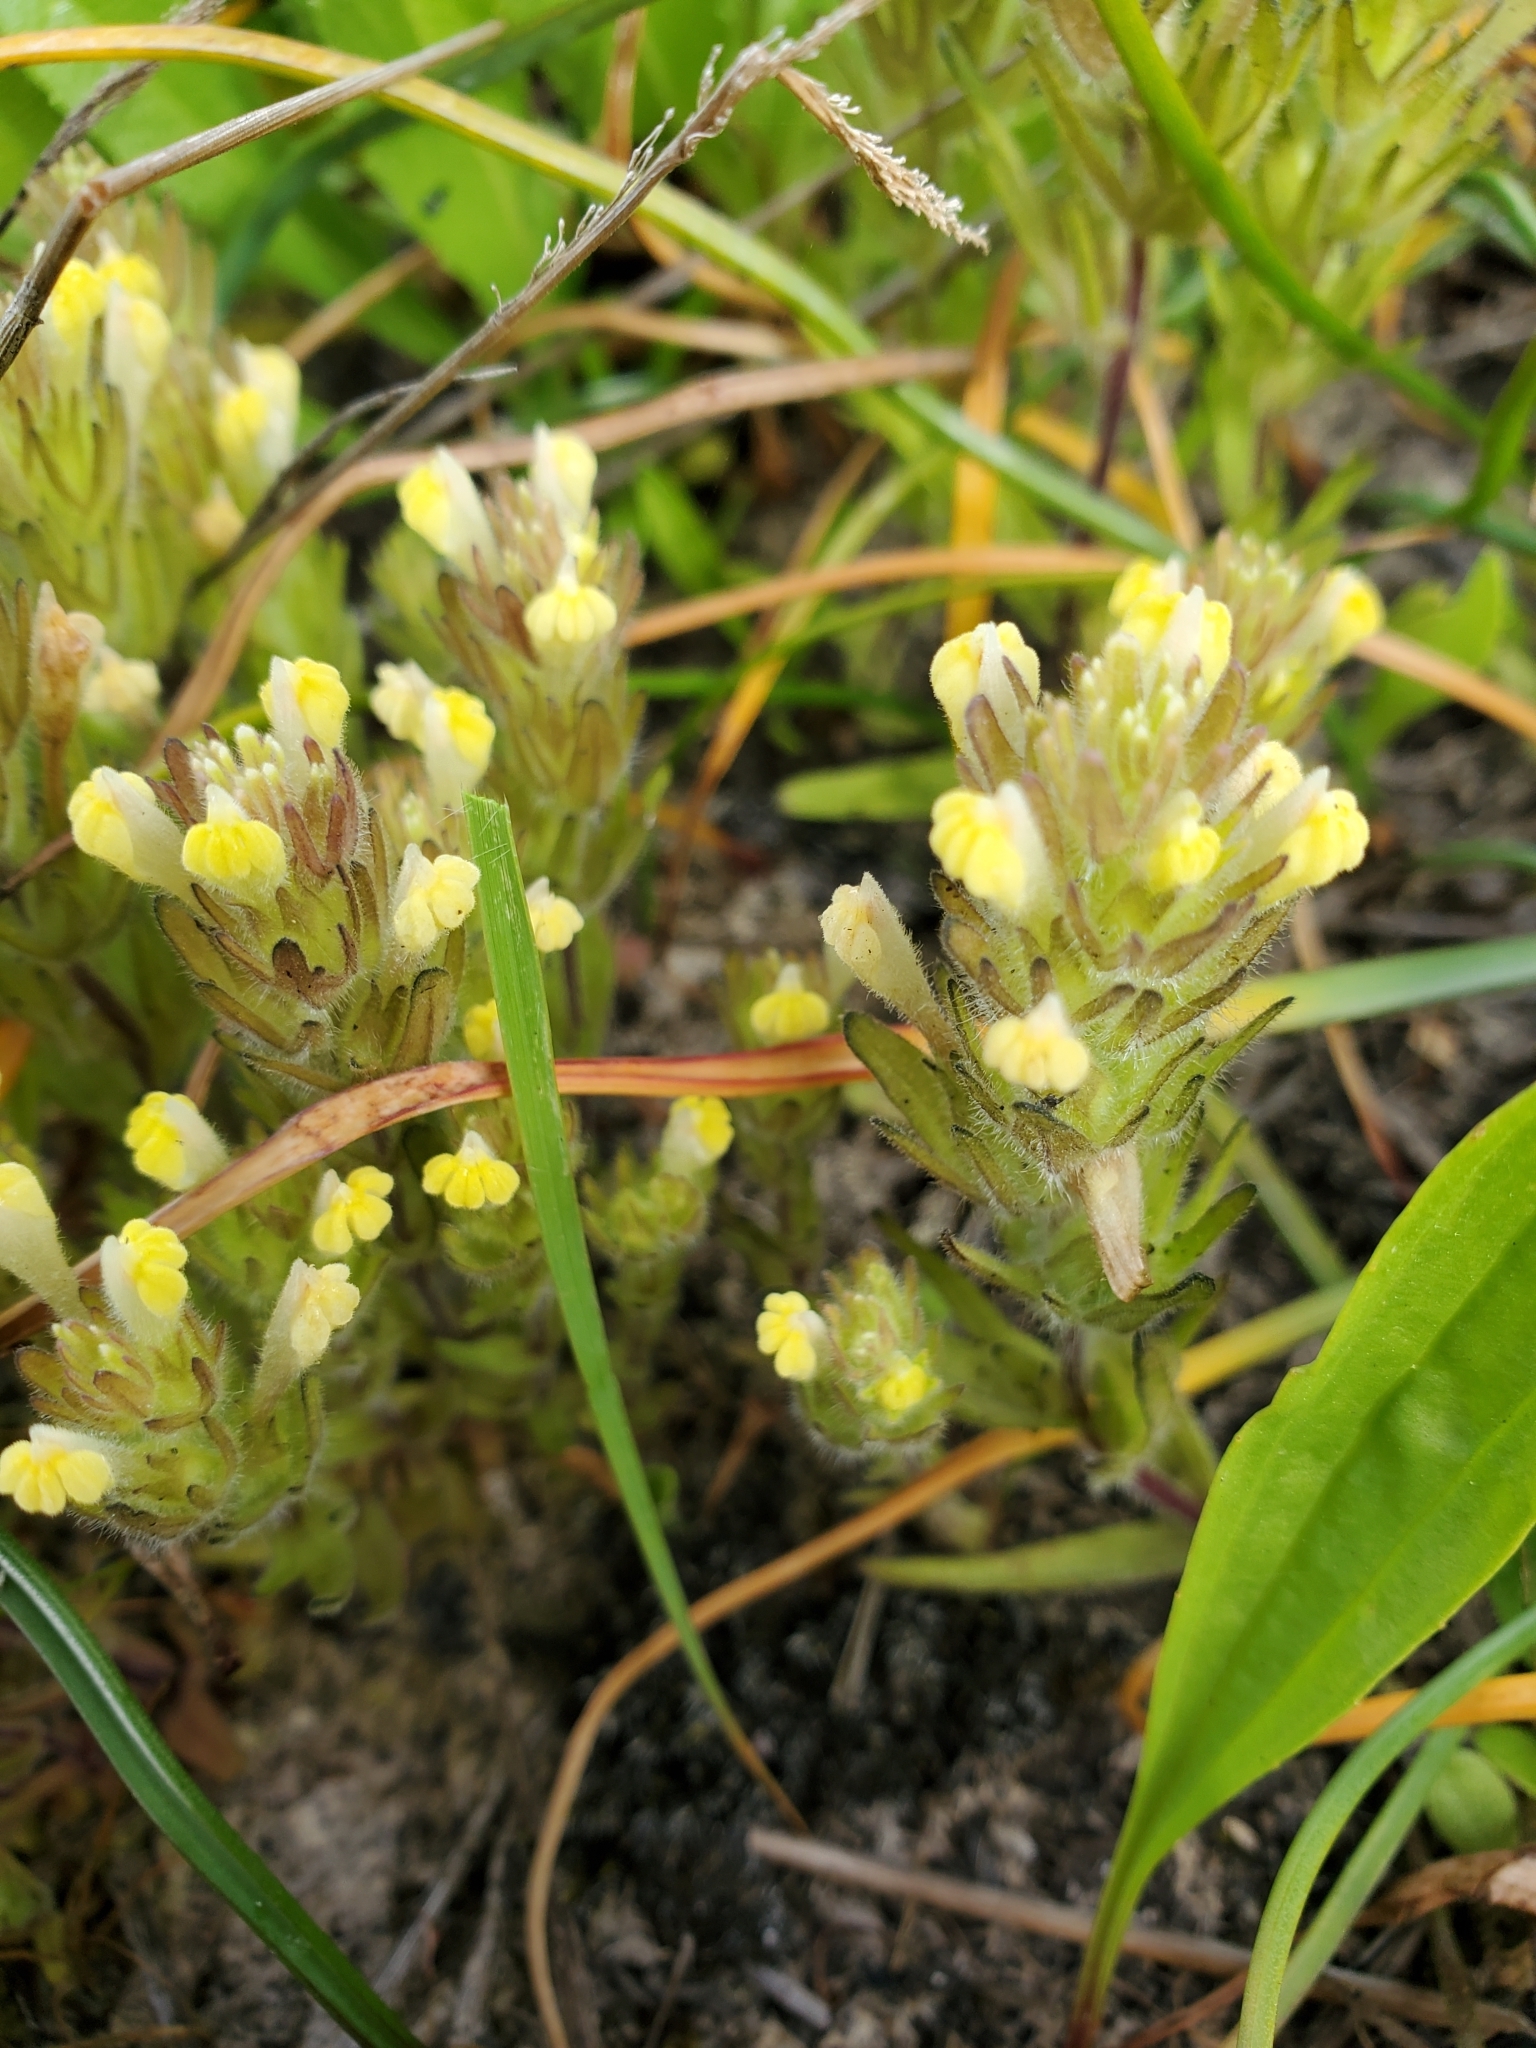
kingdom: Plantae
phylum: Tracheophyta
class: Magnoliopsida
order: Lamiales
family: Orobanchaceae
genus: Castilleja
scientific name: Castilleja victoriae
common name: Victoria paintbrush
